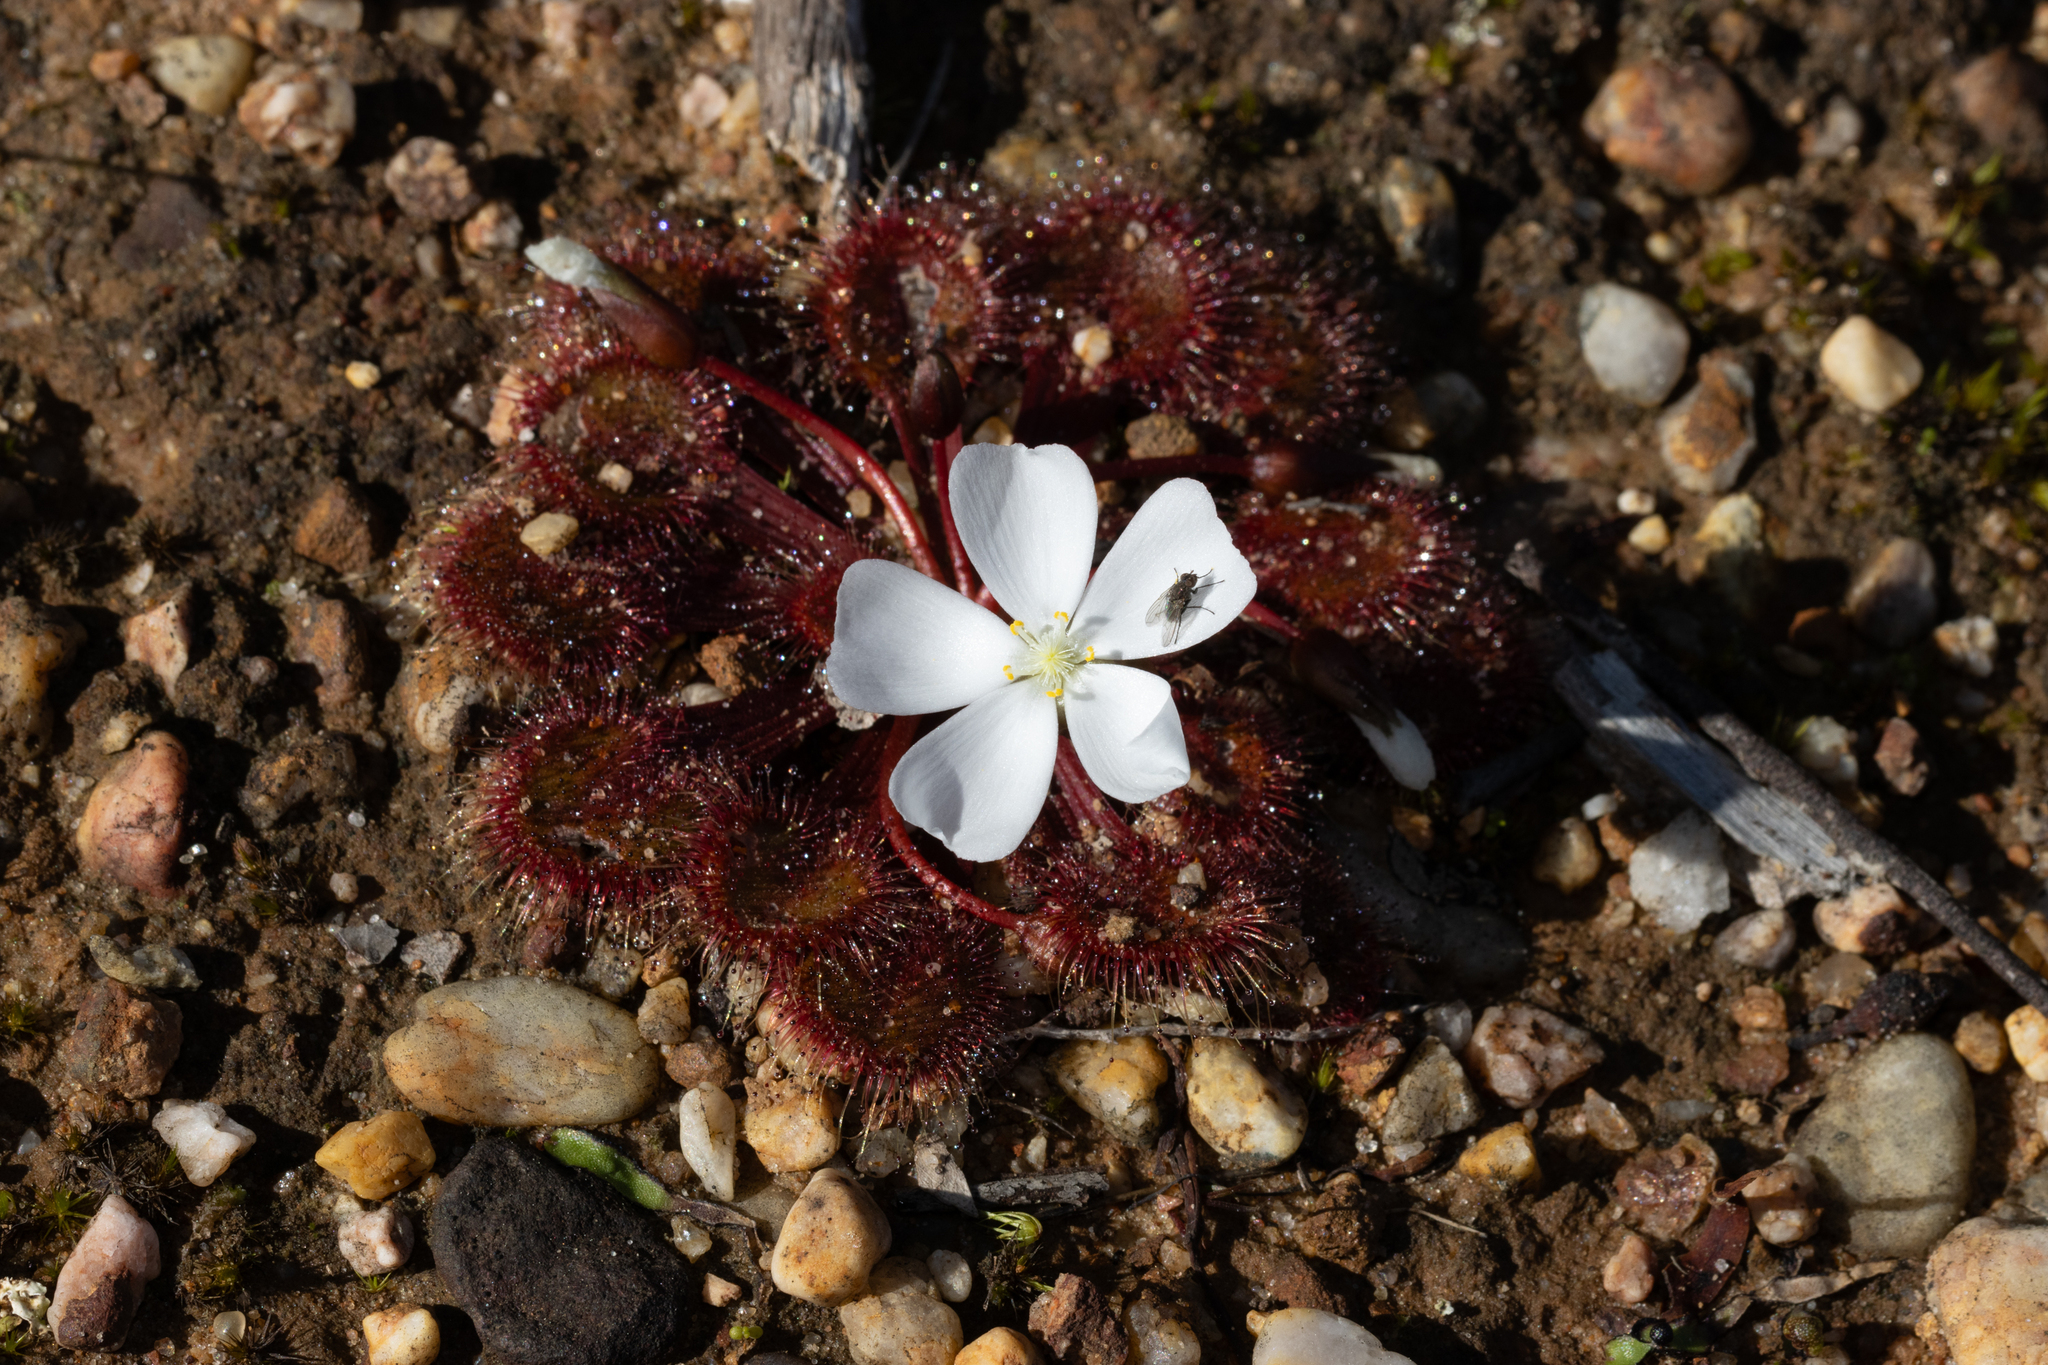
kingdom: Plantae
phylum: Tracheophyta
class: Magnoliopsida
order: Caryophyllales
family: Droseraceae
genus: Drosera
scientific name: Drosera whittakeri
